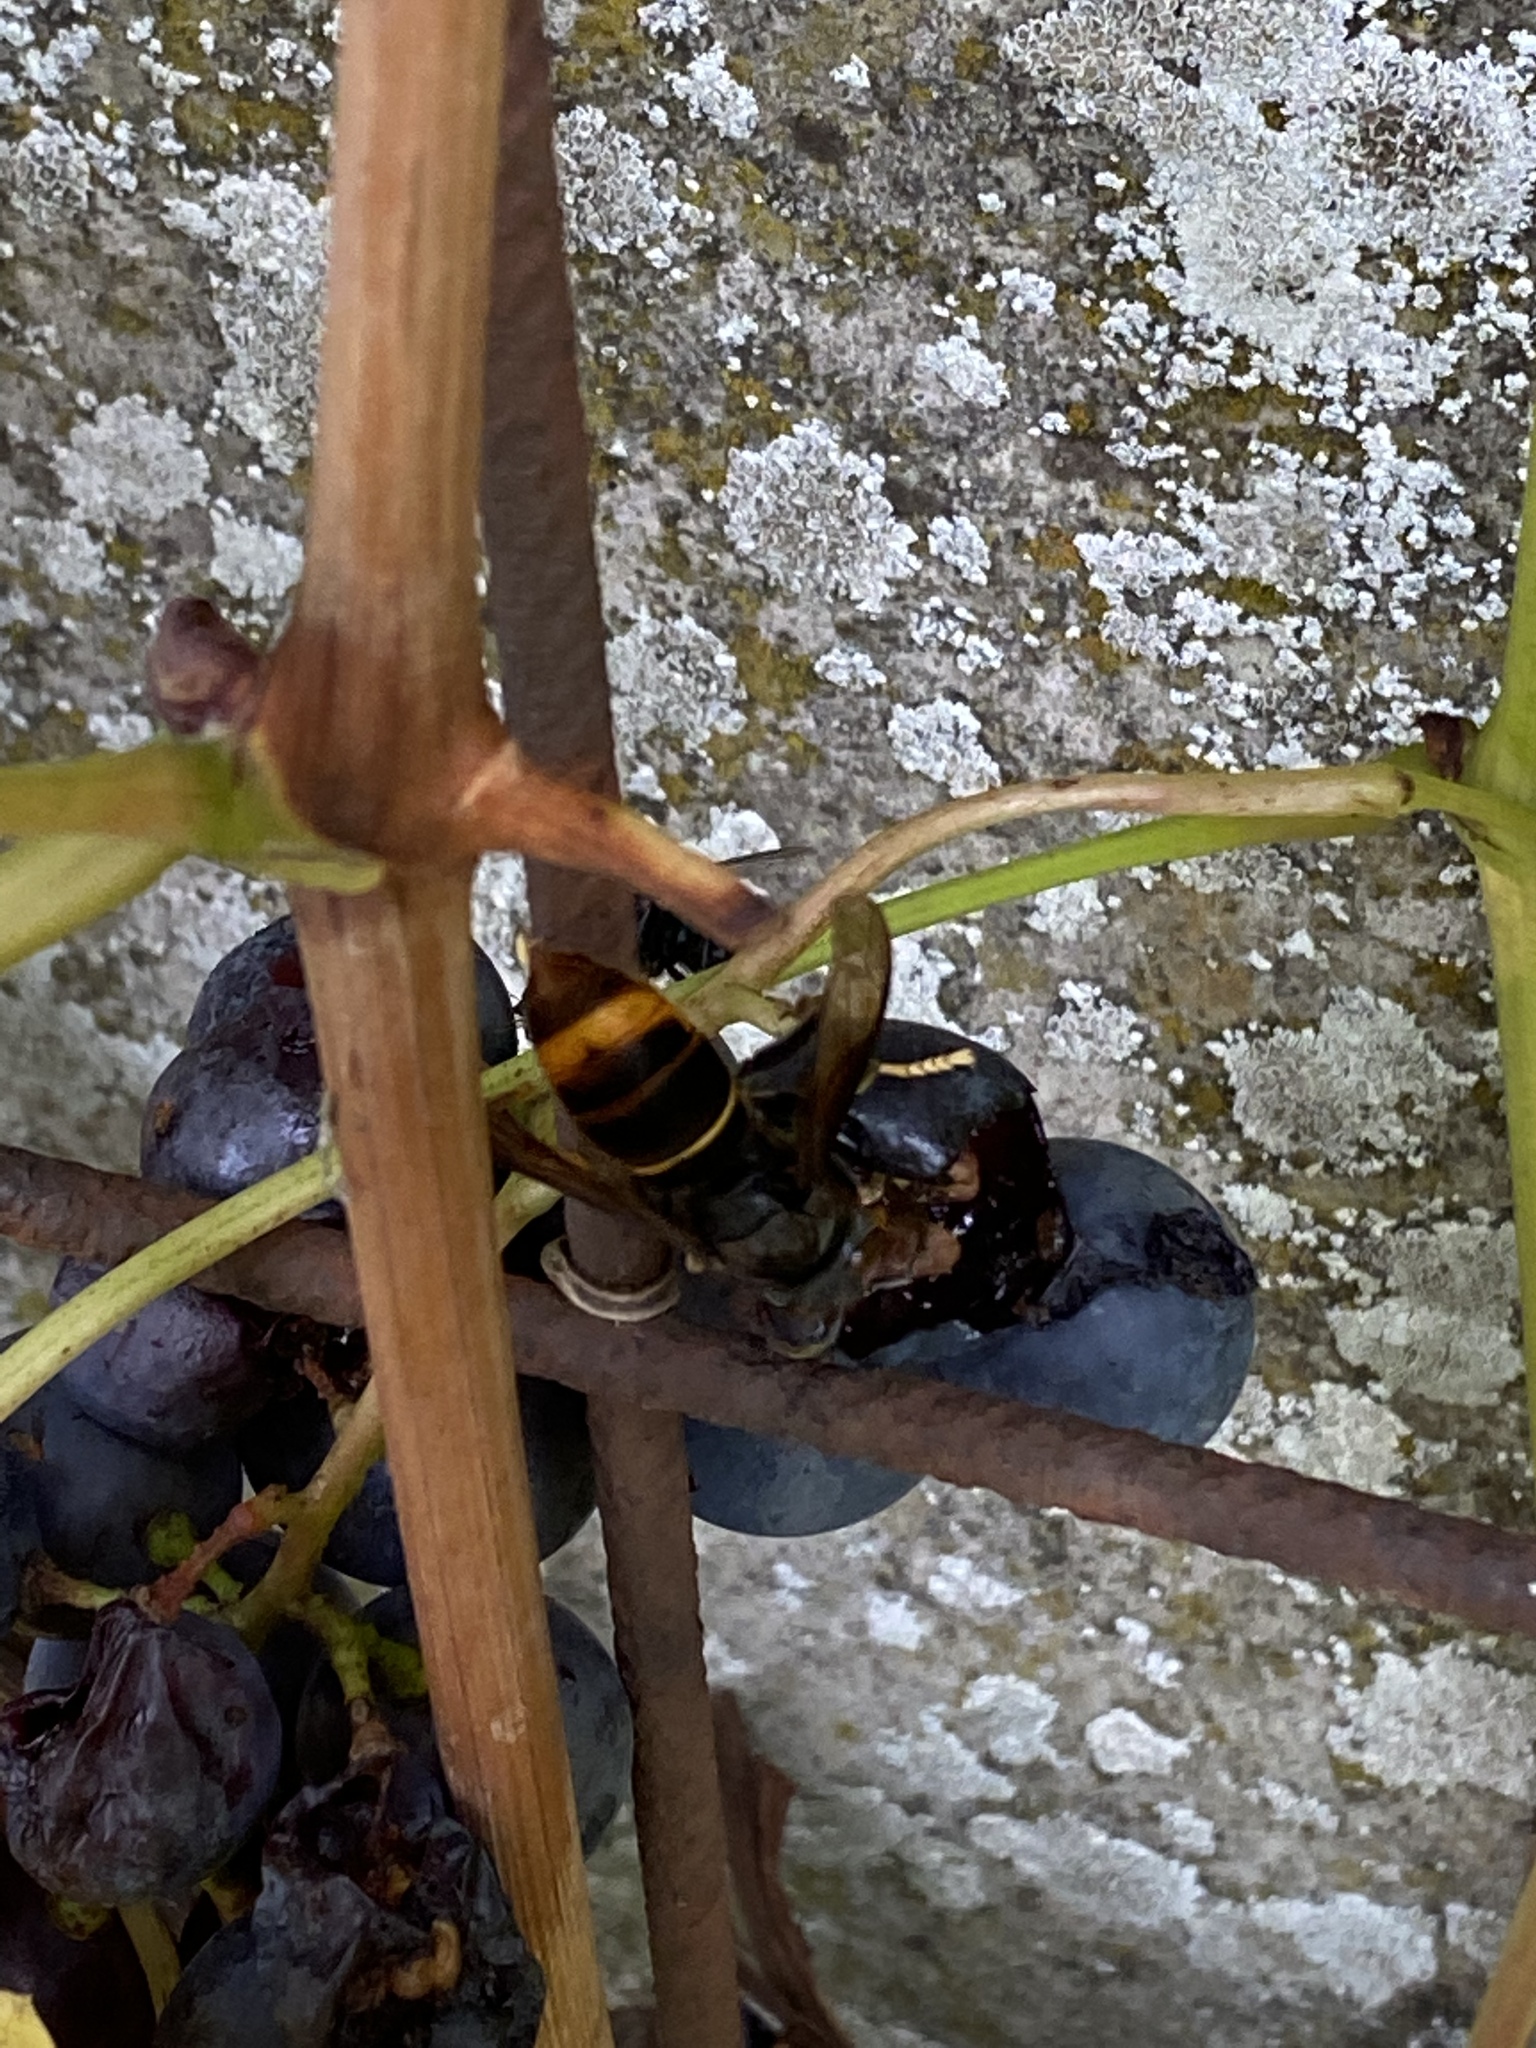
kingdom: Animalia
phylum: Arthropoda
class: Insecta
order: Hymenoptera
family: Vespidae
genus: Vespa
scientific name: Vespa velutina
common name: Asian hornet
